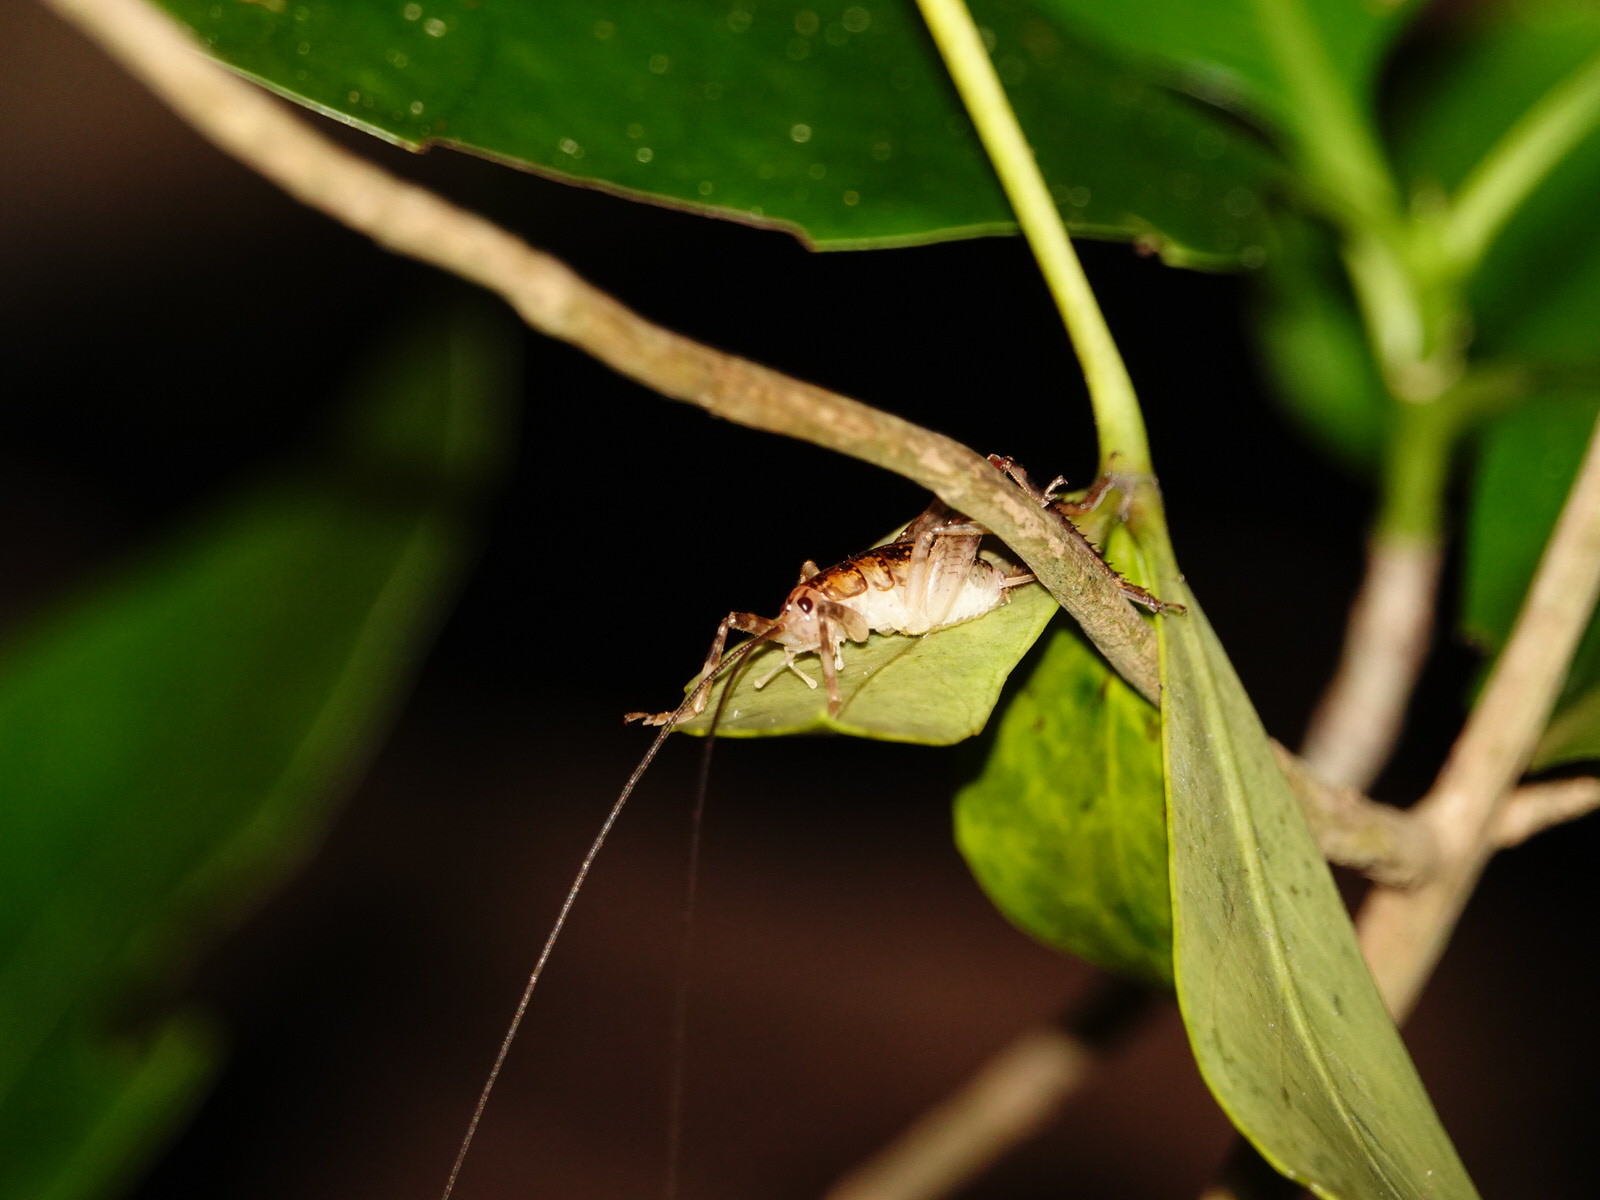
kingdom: Animalia
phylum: Arthropoda
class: Insecta
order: Orthoptera
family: Rhaphidophoridae
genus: Talitropsis
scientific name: Talitropsis sedilloti
